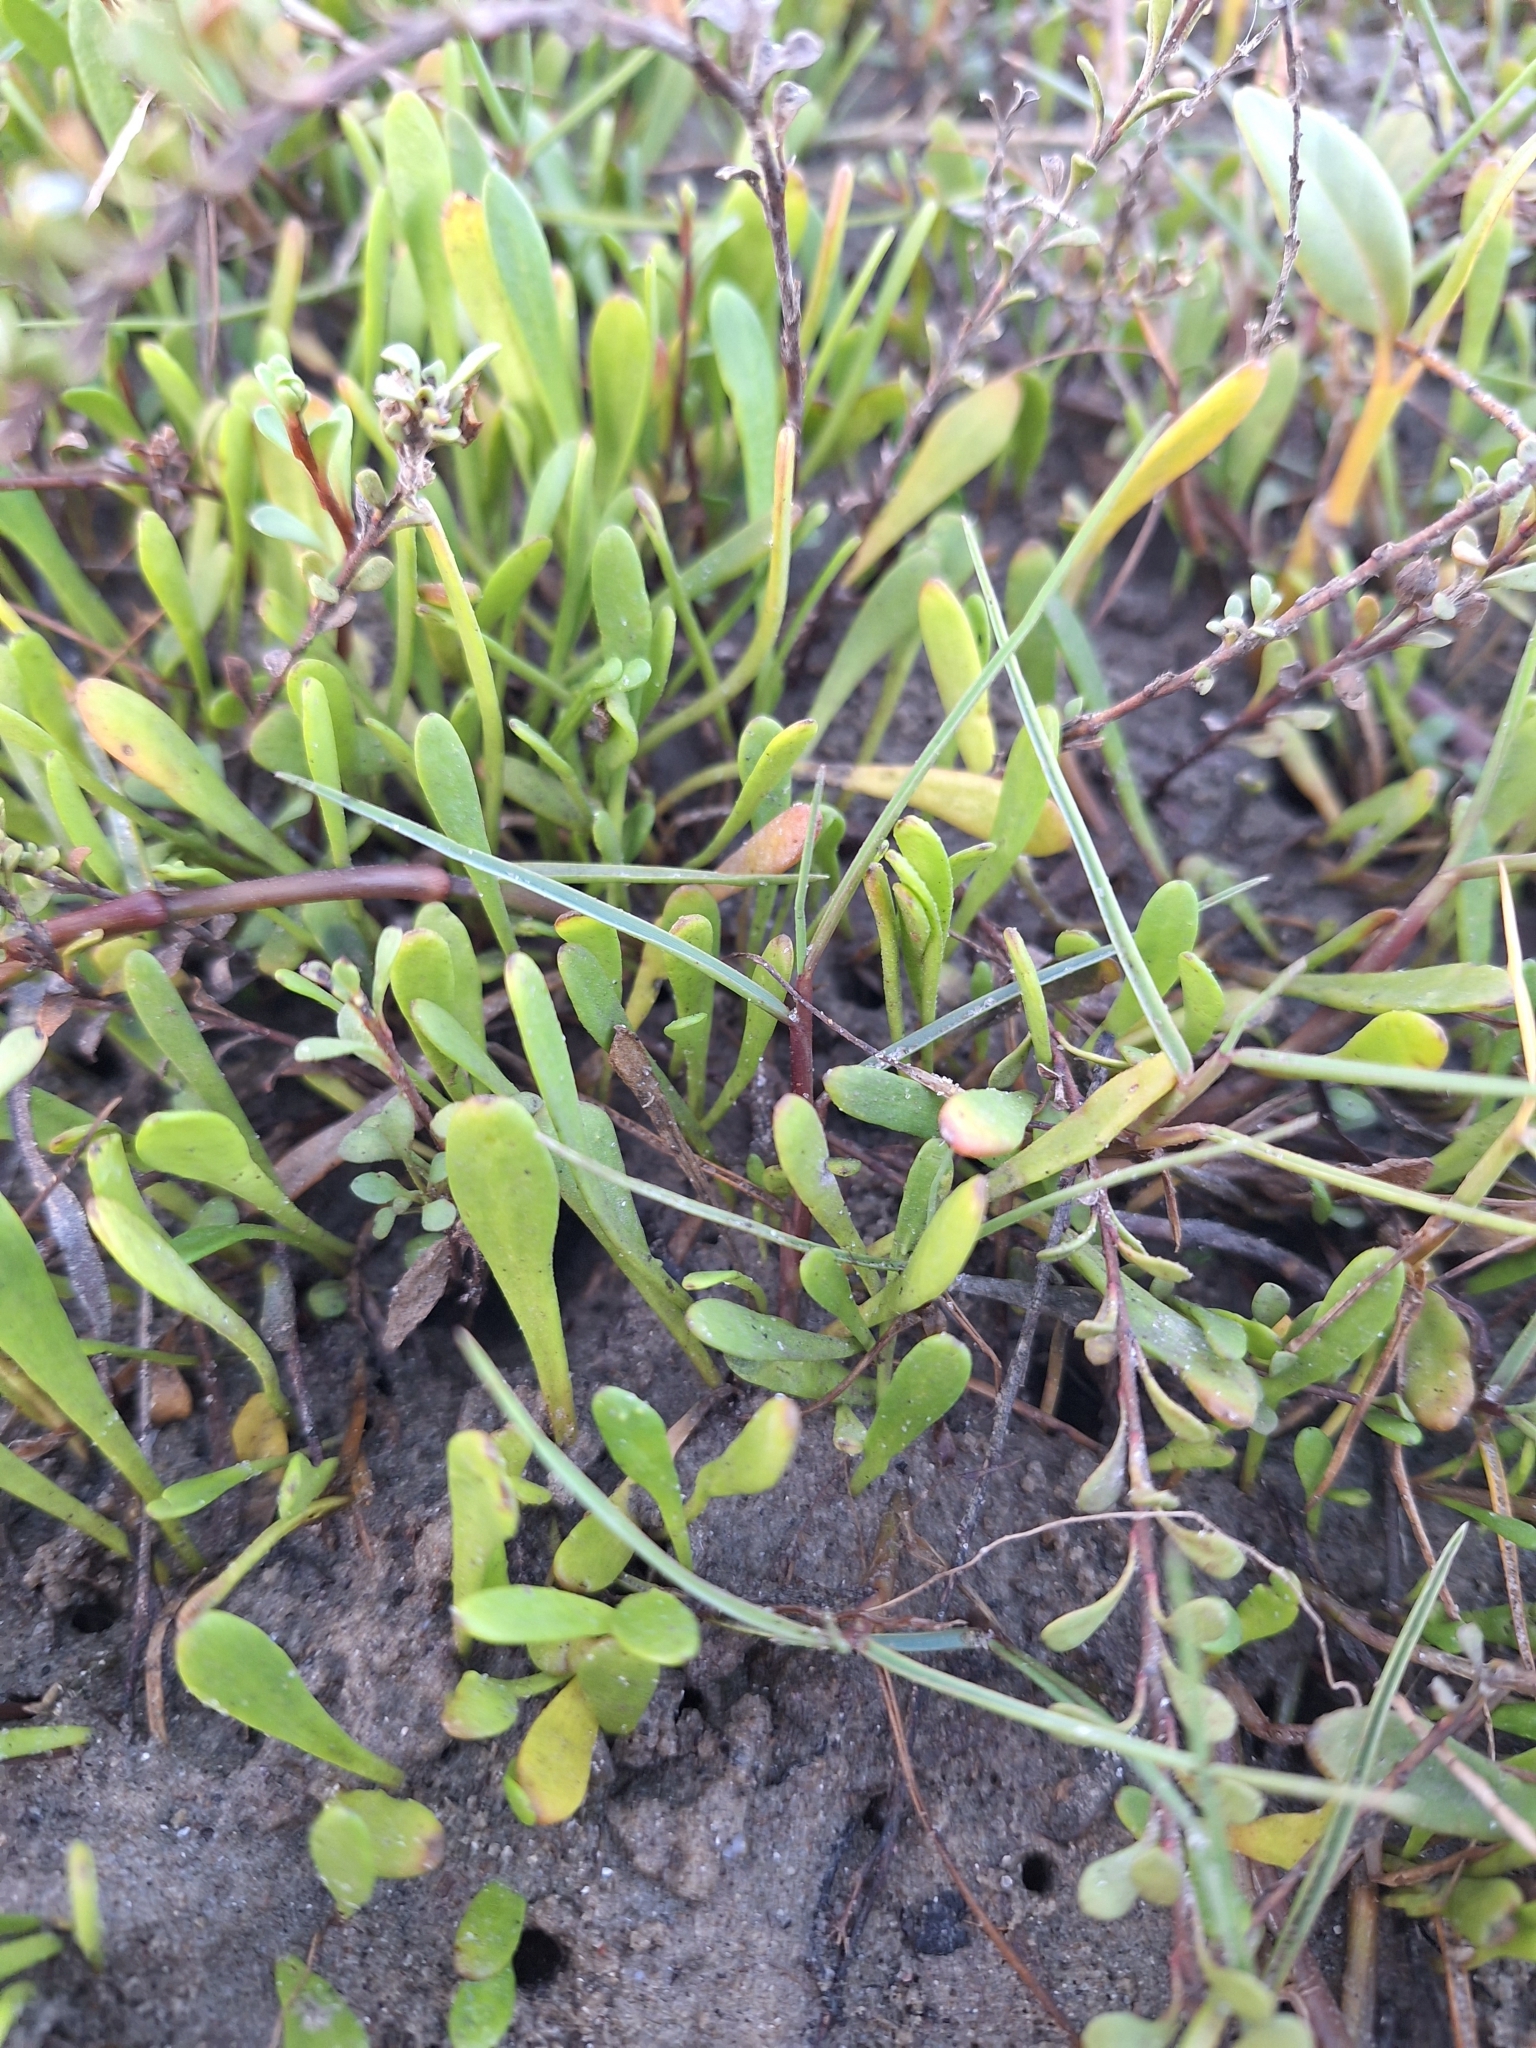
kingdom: Plantae
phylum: Tracheophyta
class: Magnoliopsida
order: Asterales
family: Goodeniaceae
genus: Goodenia
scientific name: Goodenia radicans
